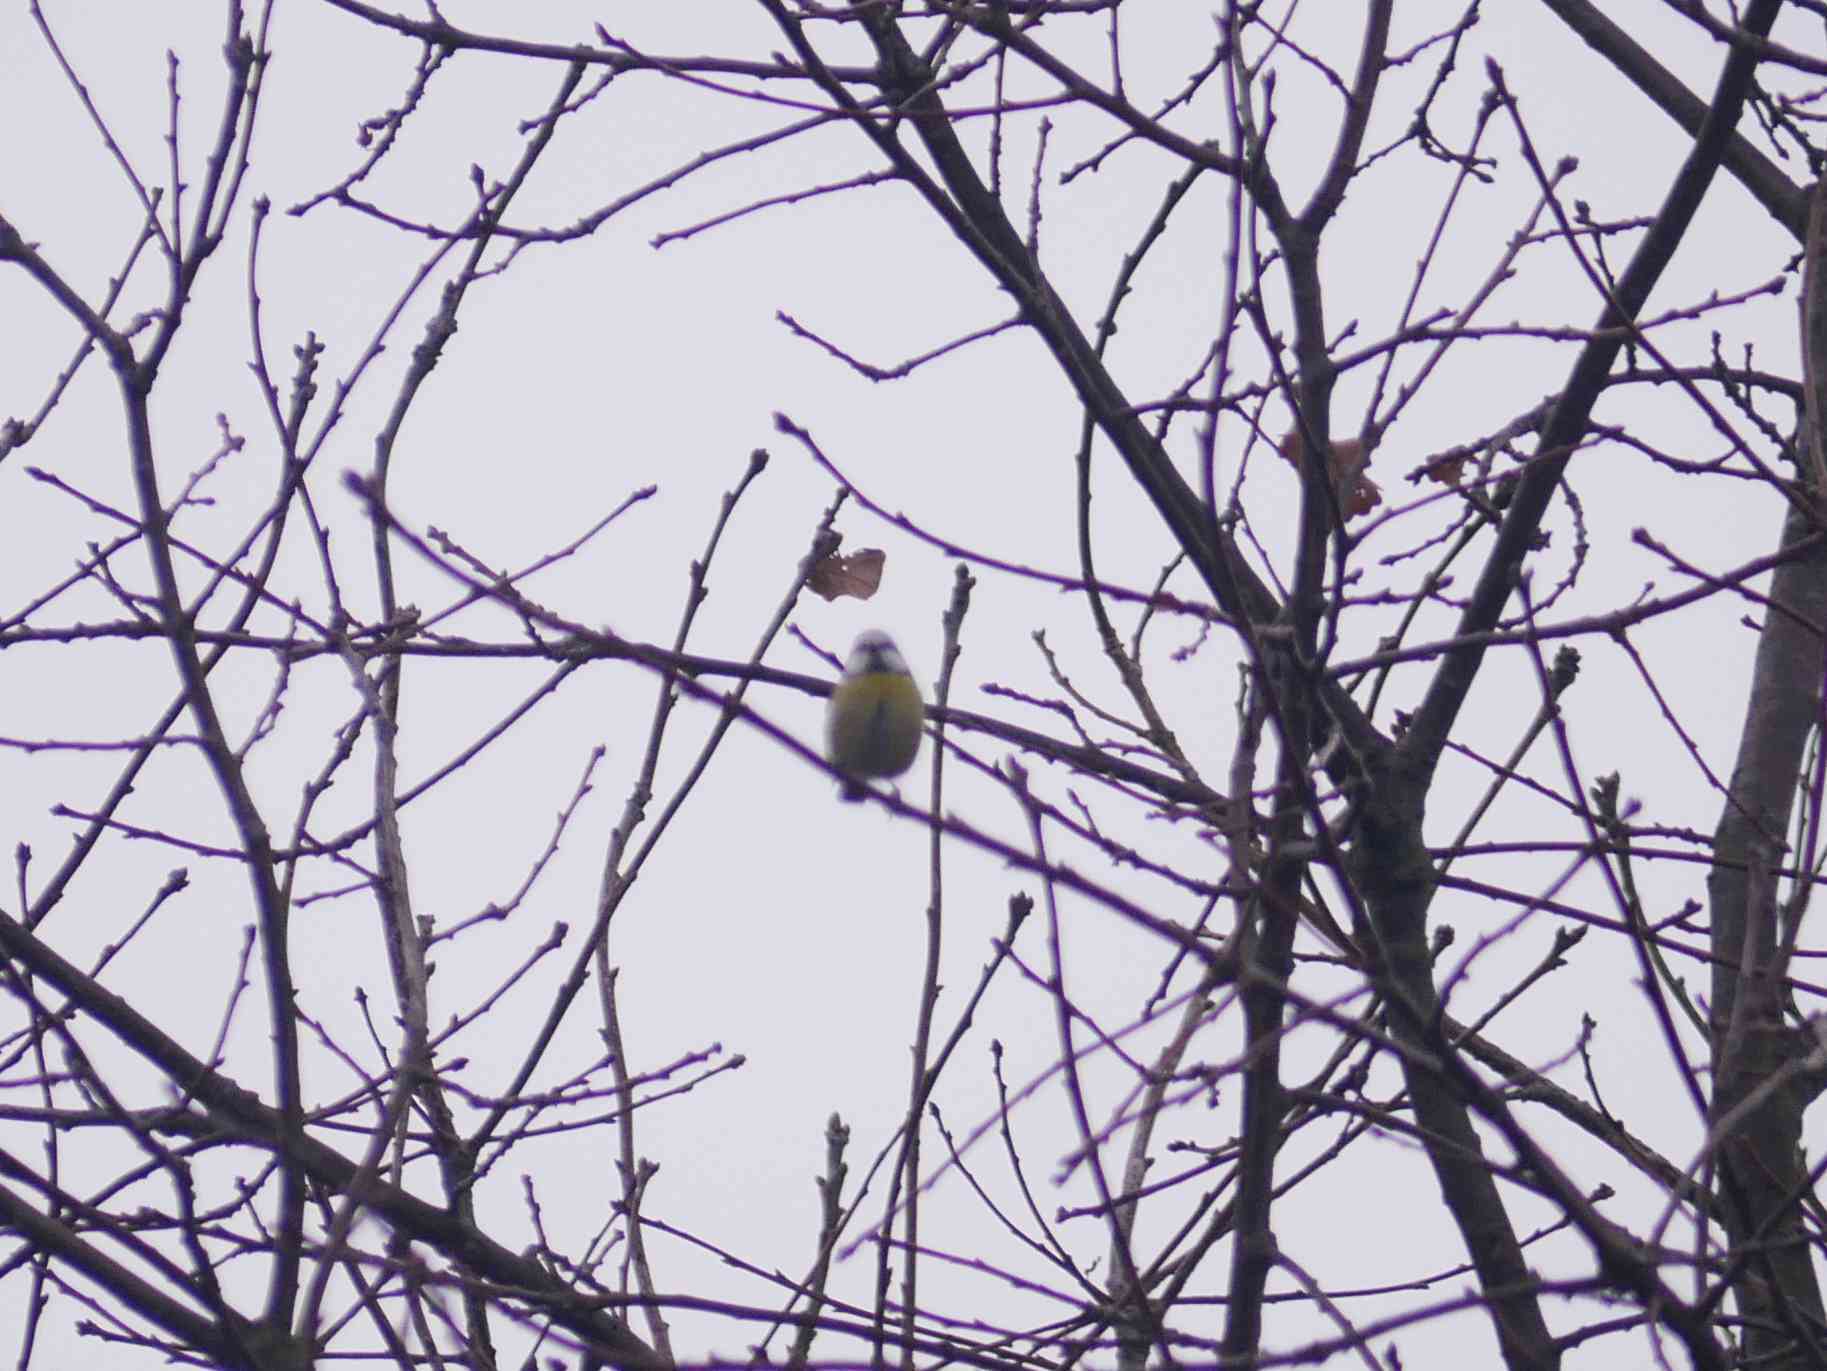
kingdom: Animalia
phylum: Chordata
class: Aves
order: Passeriformes
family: Paridae
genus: Cyanistes
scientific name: Cyanistes caeruleus
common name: Eurasian blue tit
